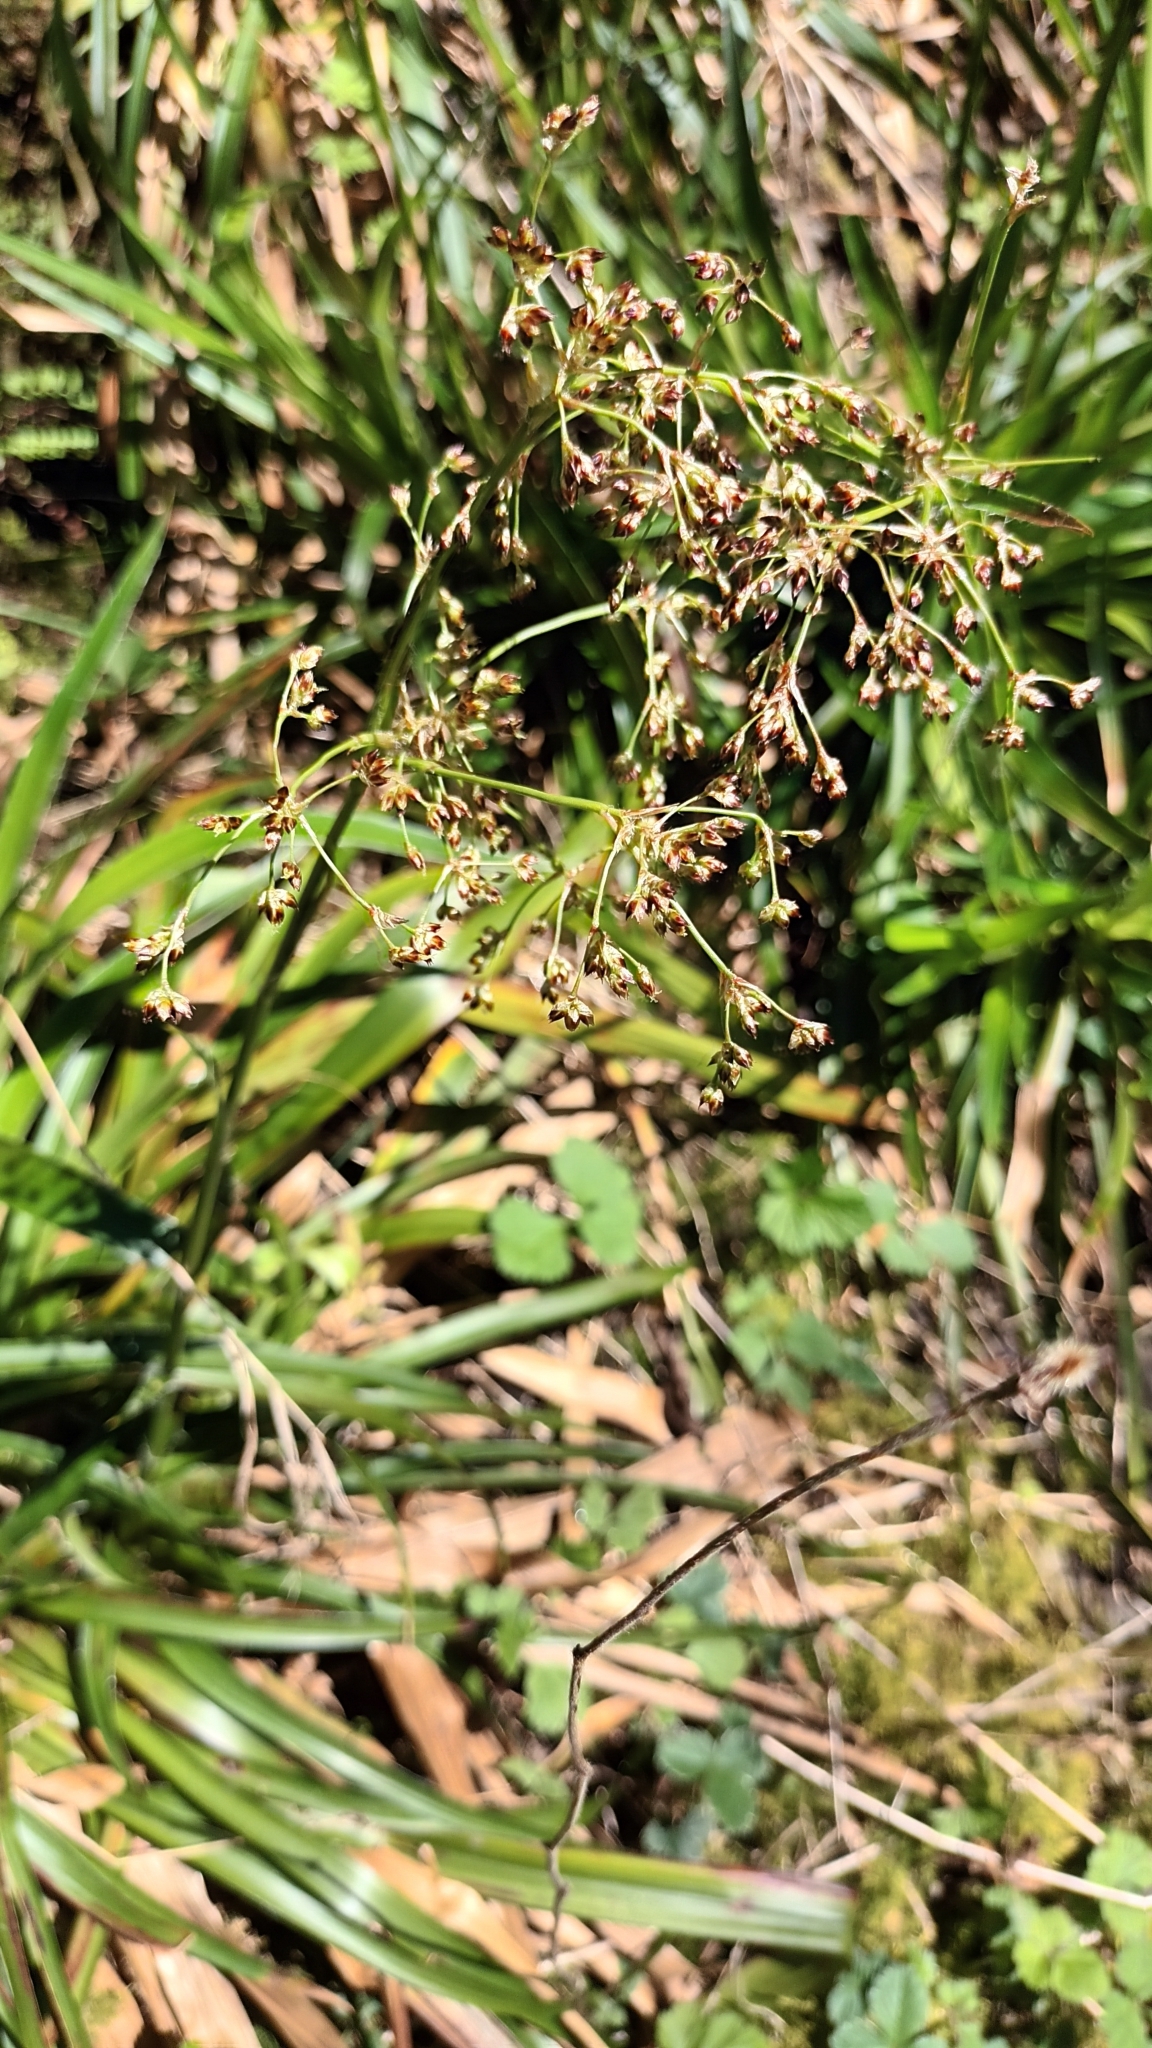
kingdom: Plantae
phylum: Tracheophyta
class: Liliopsida
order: Poales
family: Juncaceae
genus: Luzula
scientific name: Luzula sylvatica
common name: Great wood-rush
